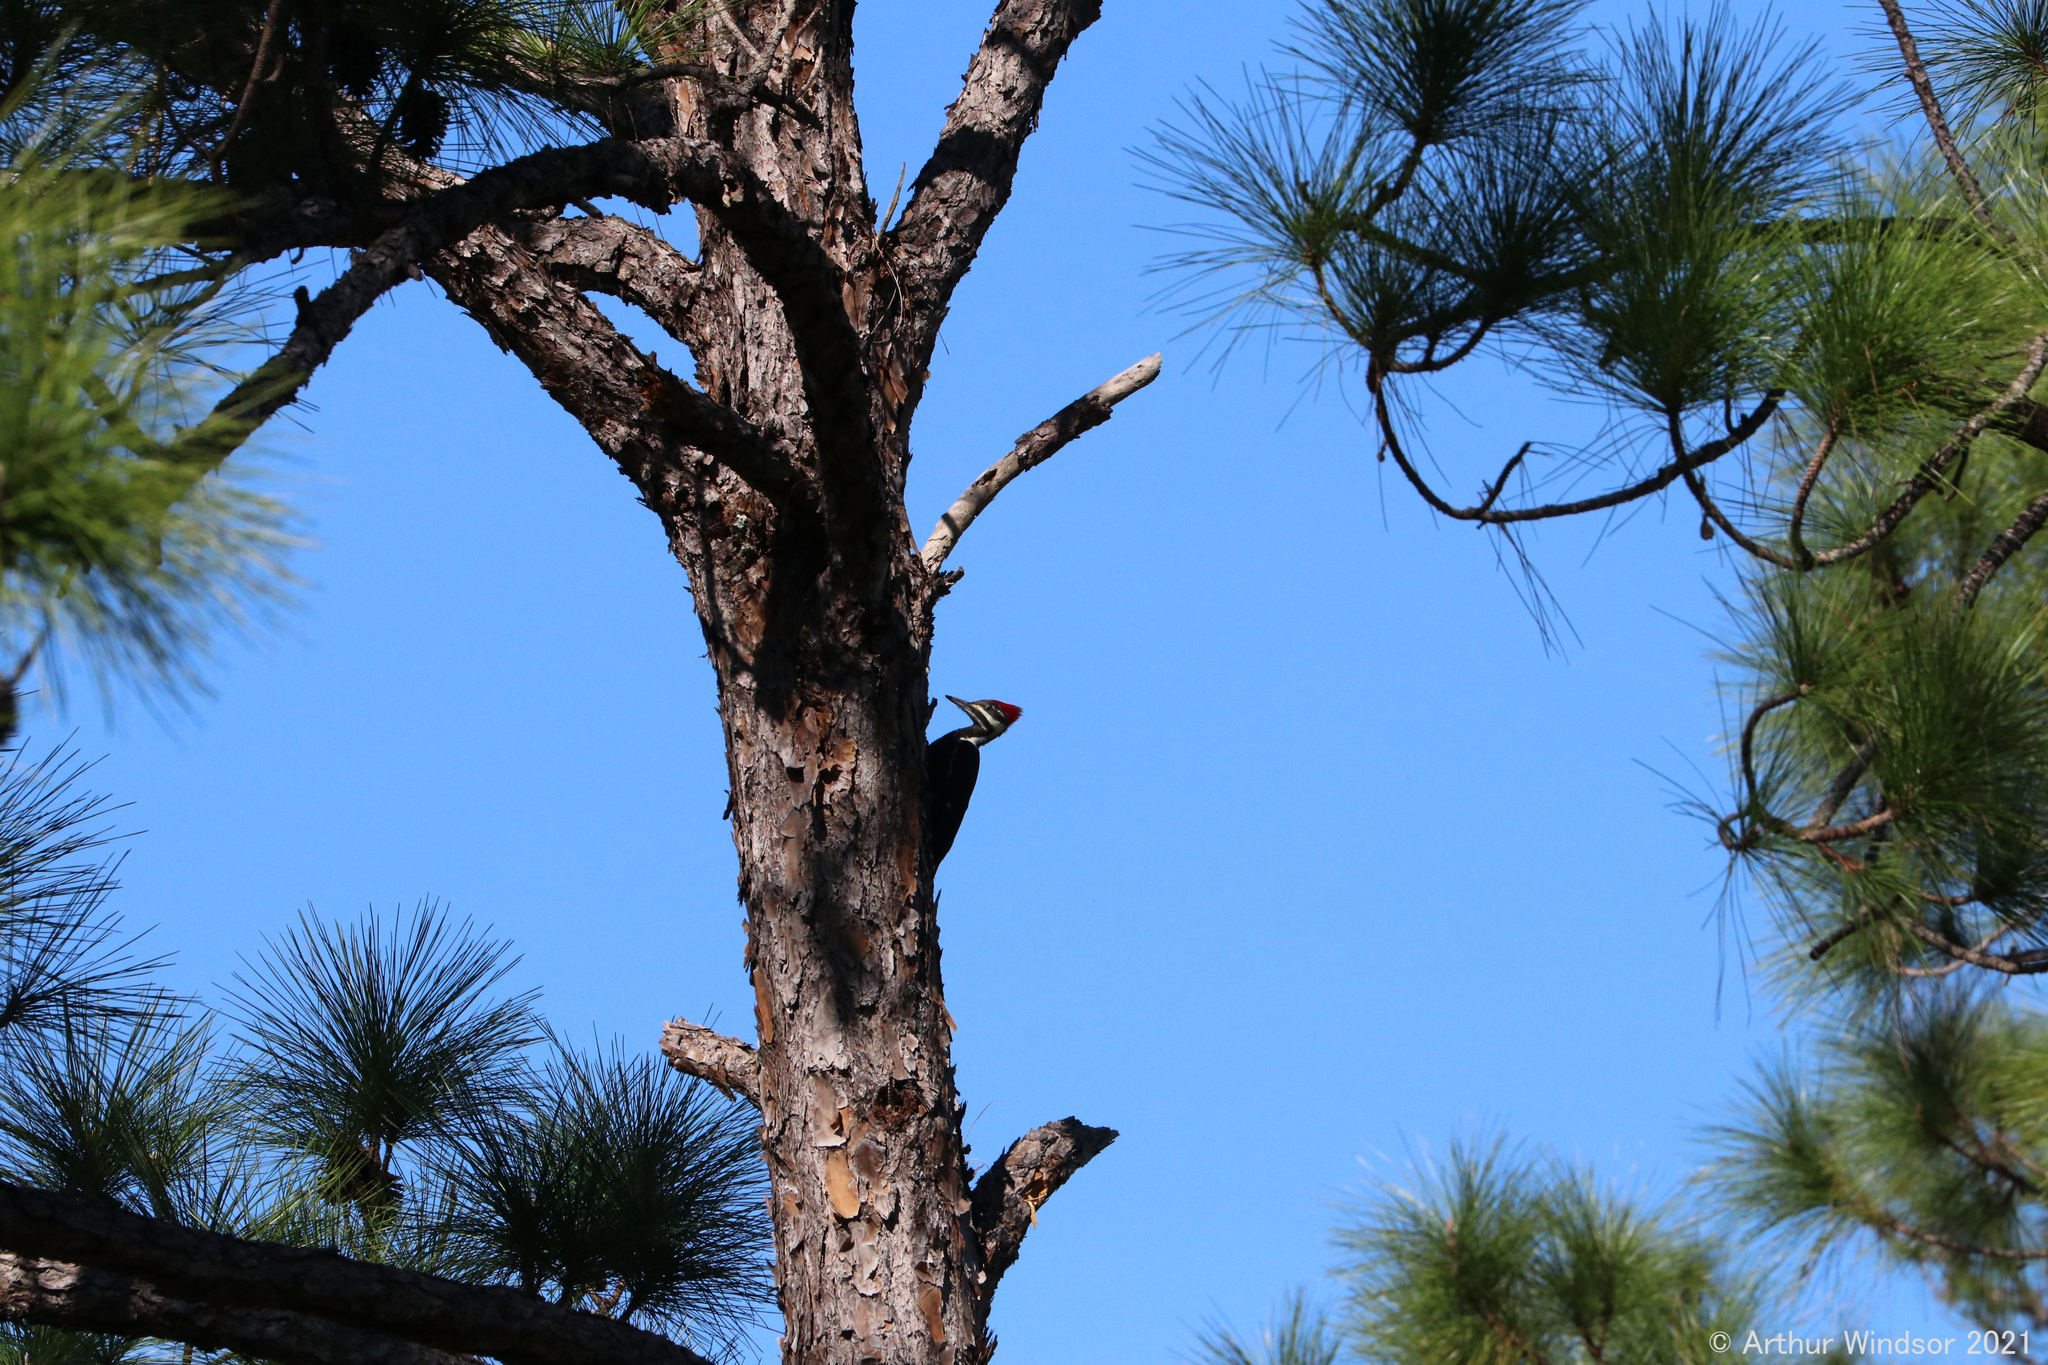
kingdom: Animalia
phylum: Chordata
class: Aves
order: Piciformes
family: Picidae
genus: Dryocopus
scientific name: Dryocopus pileatus
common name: Pileated woodpecker
